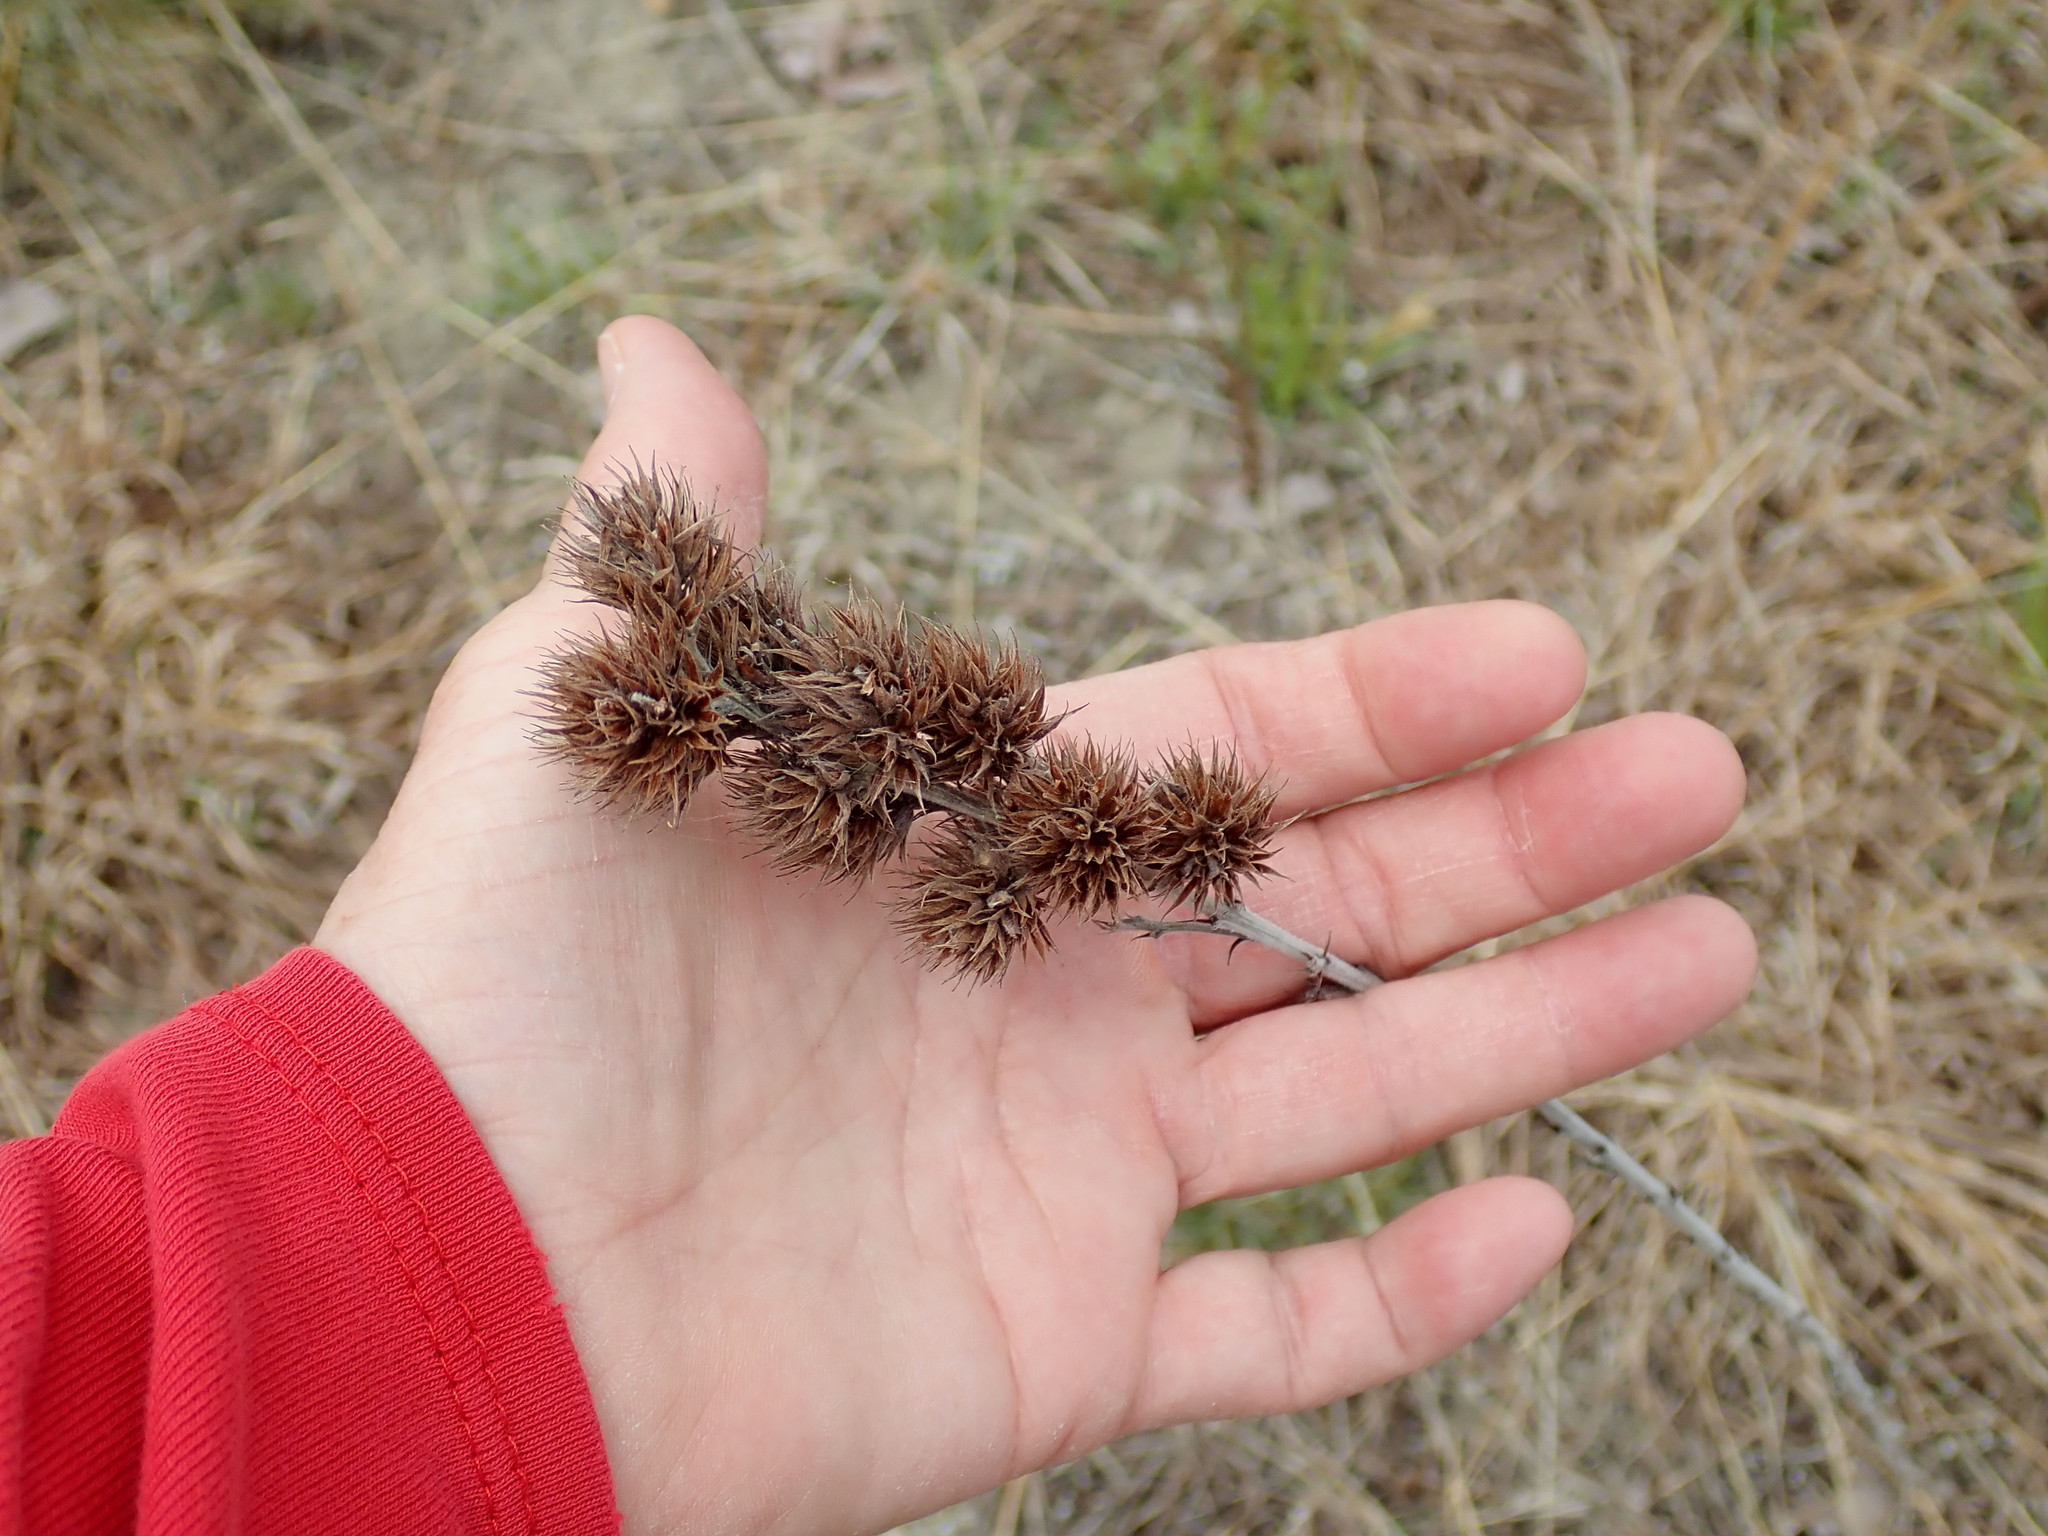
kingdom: Plantae
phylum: Tracheophyta
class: Magnoliopsida
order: Fabales
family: Fabaceae
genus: Lespedeza
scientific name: Lespedeza capitata
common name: Dusty clover
